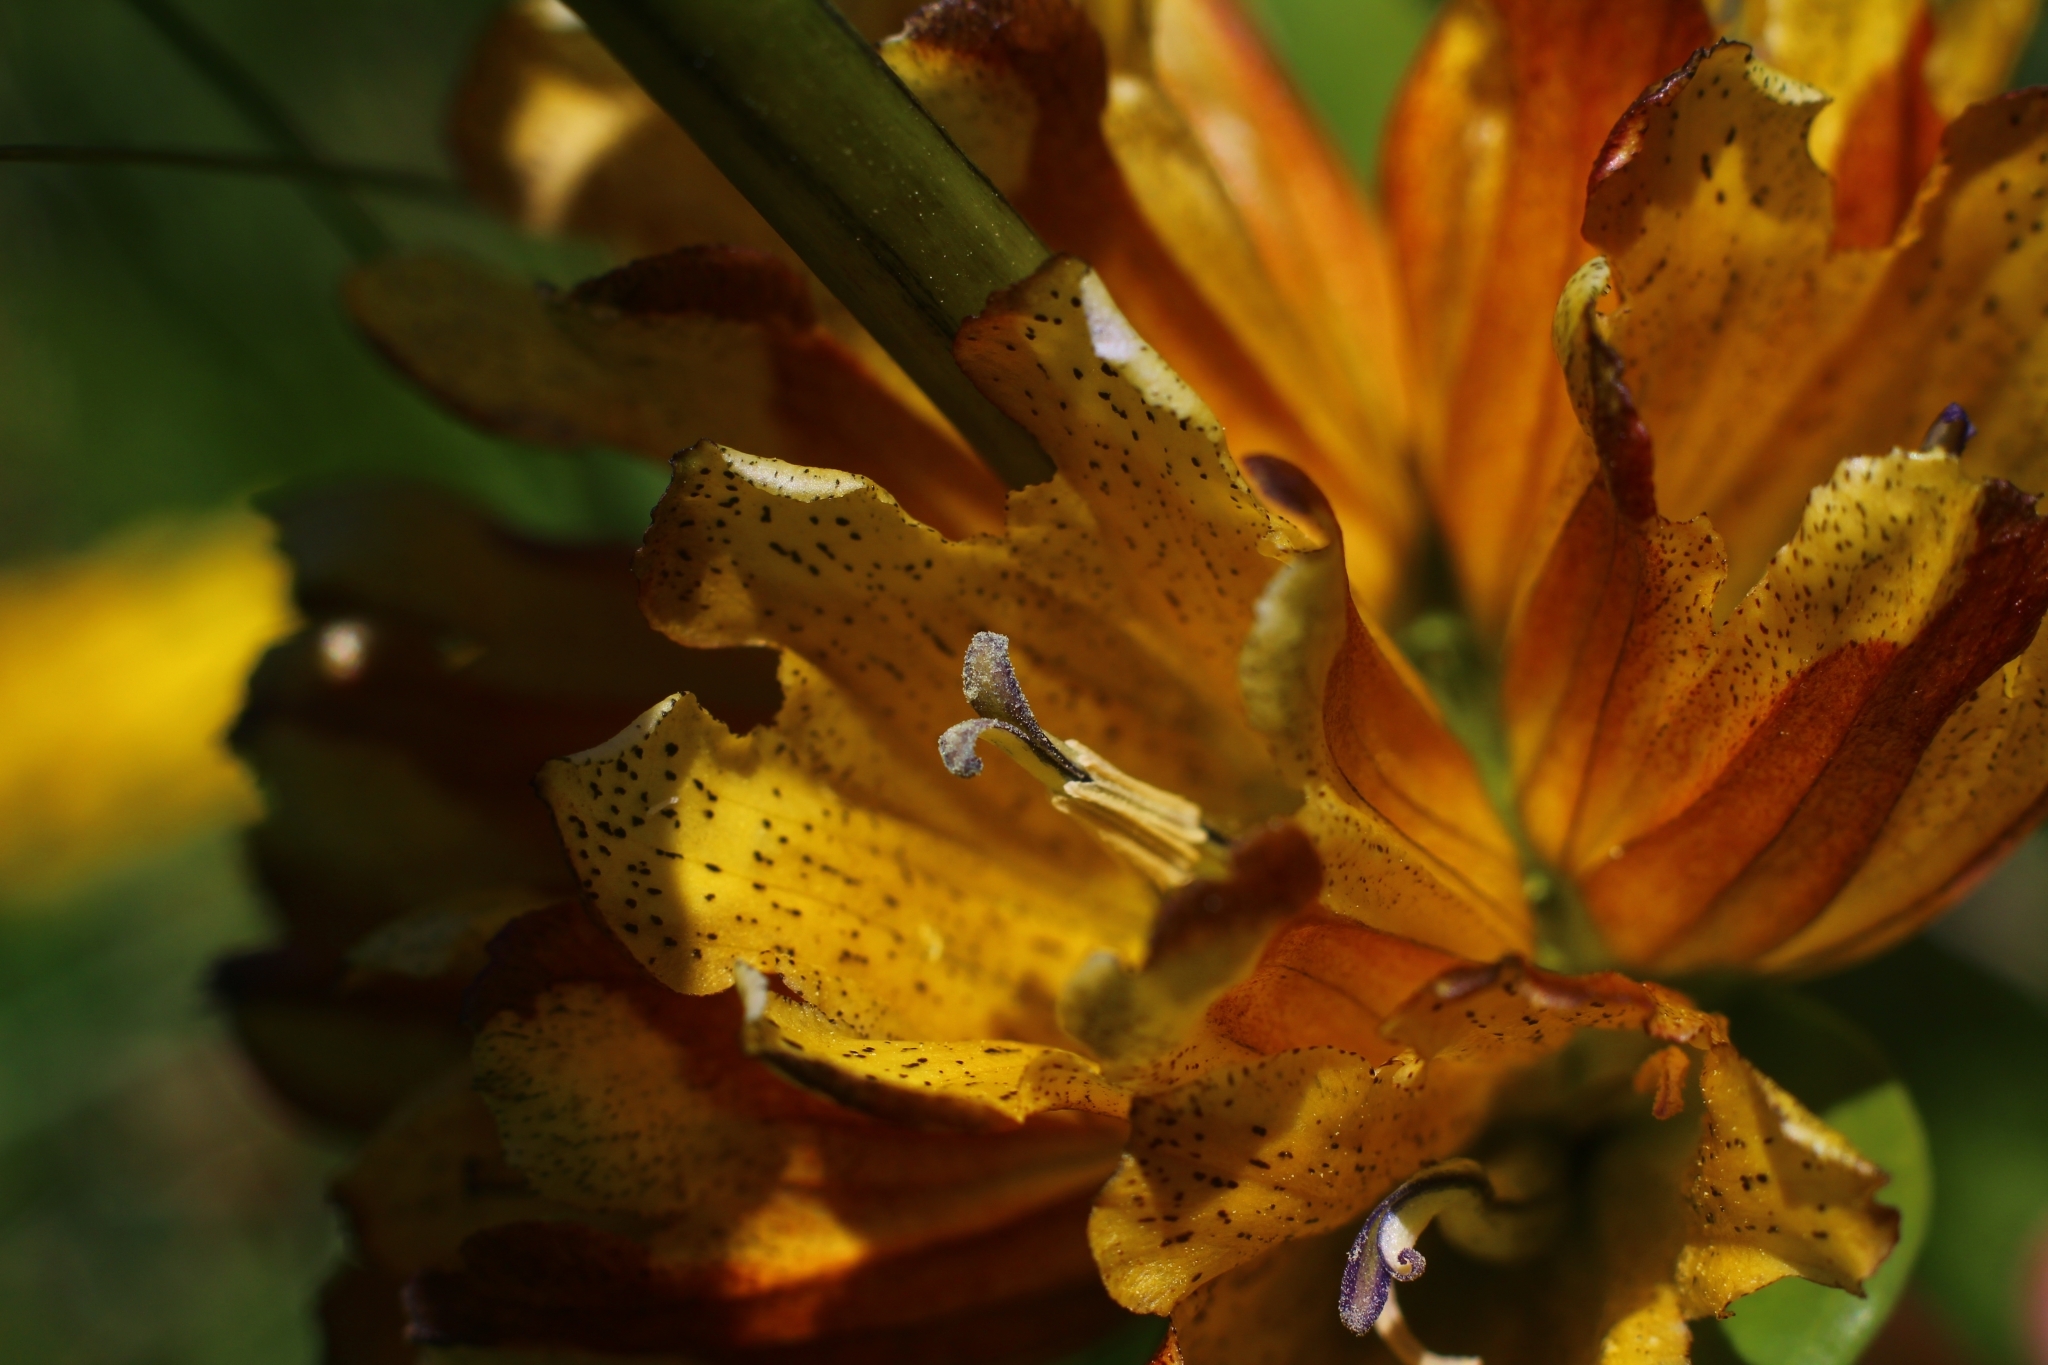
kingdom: Plantae
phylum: Tracheophyta
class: Magnoliopsida
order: Gentianales
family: Gentianaceae
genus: Gentiana
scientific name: Gentiana gaudiniana
